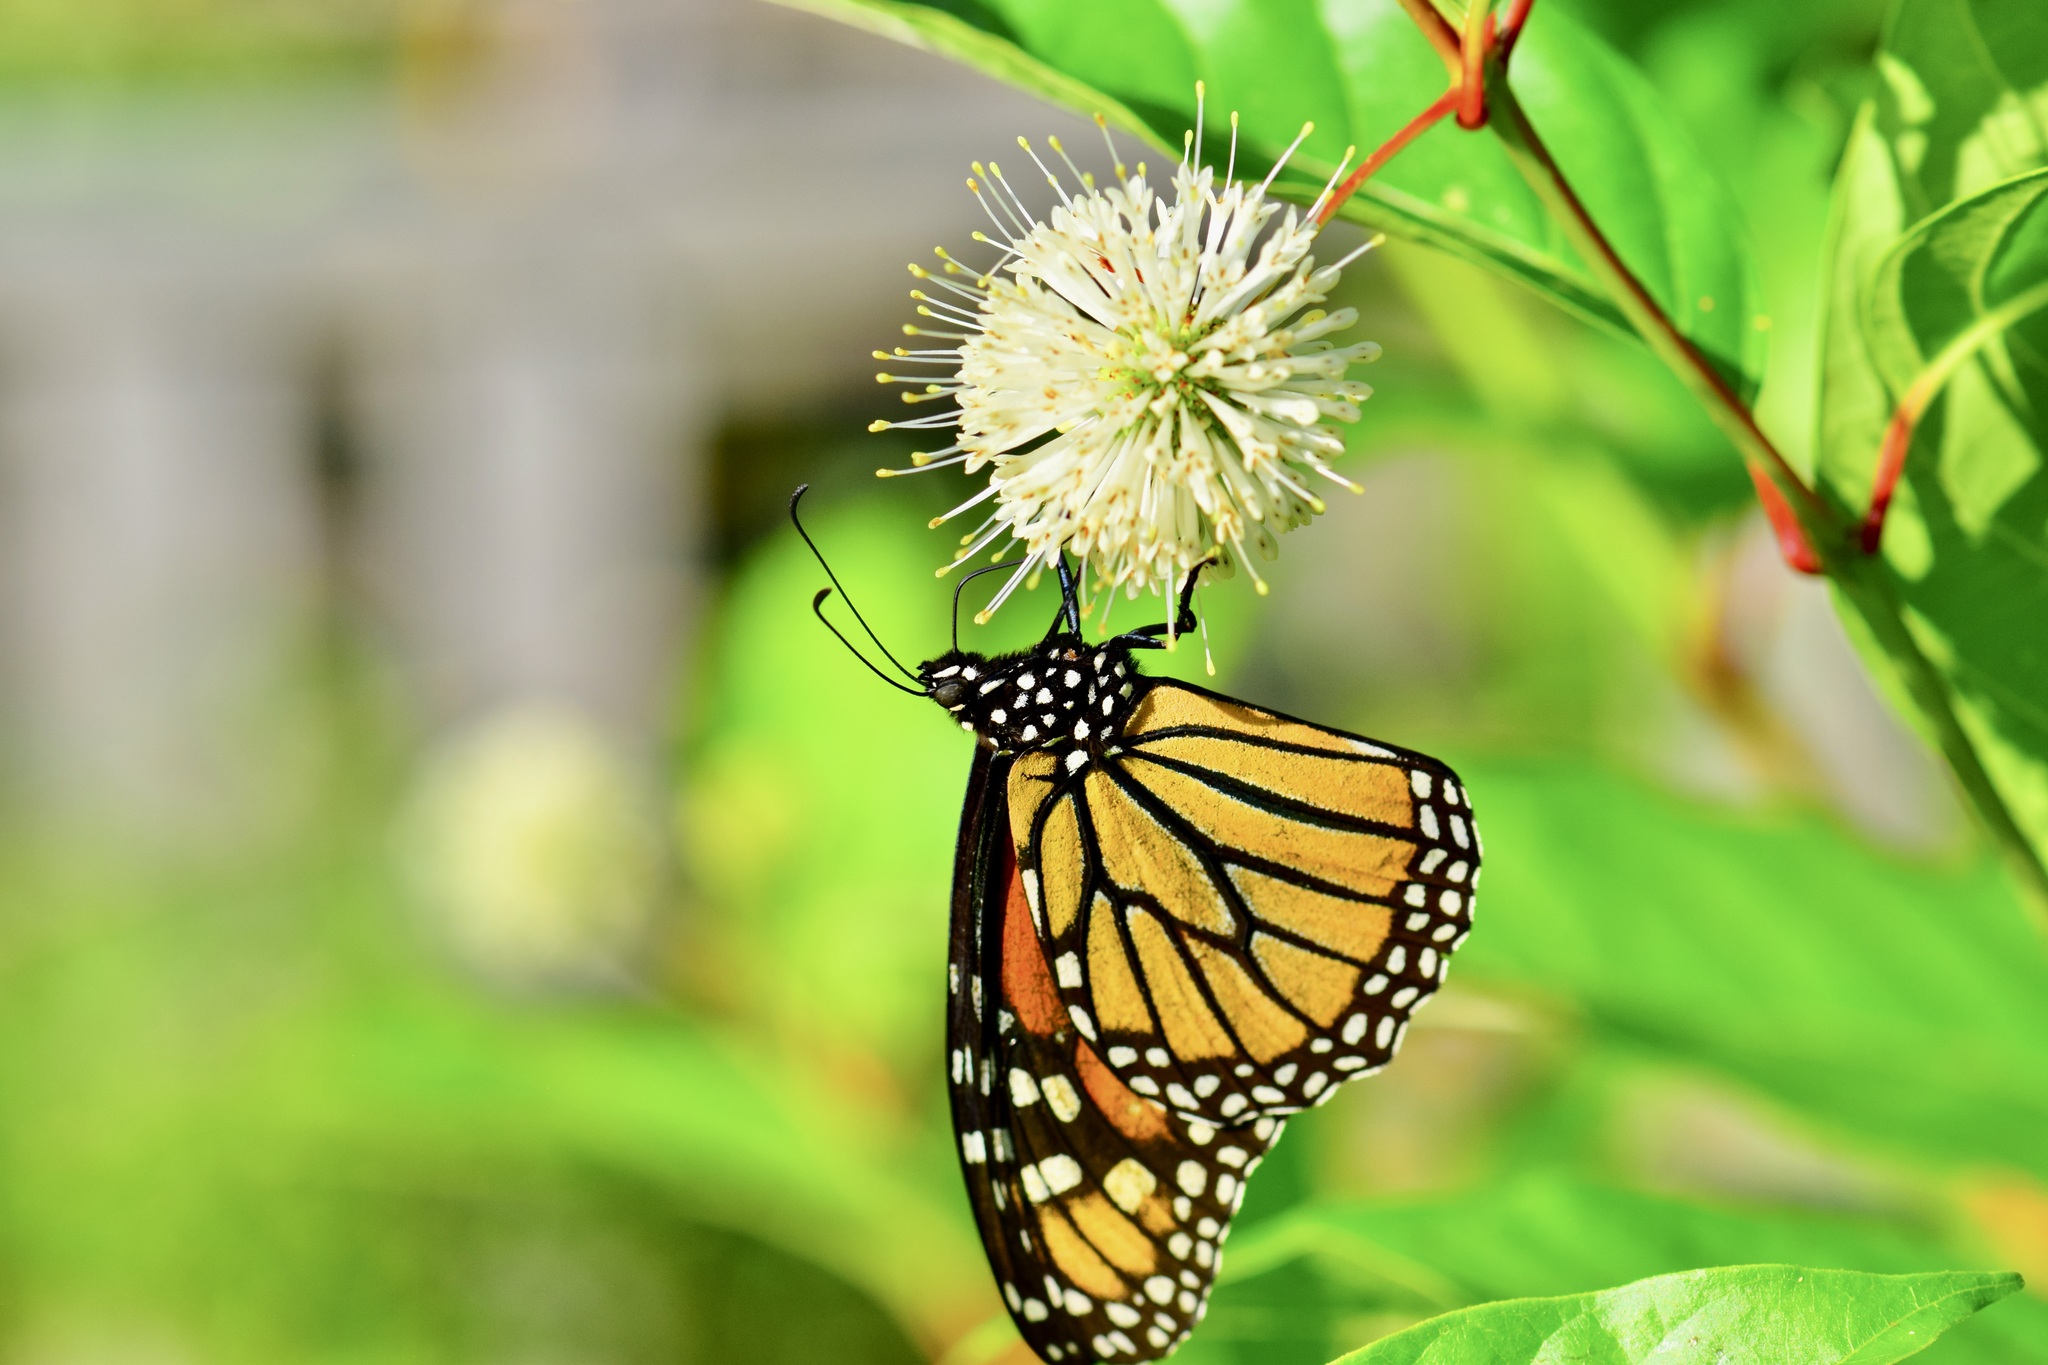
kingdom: Animalia
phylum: Arthropoda
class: Insecta
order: Lepidoptera
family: Nymphalidae
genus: Danaus
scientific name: Danaus plexippus
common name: Monarch
